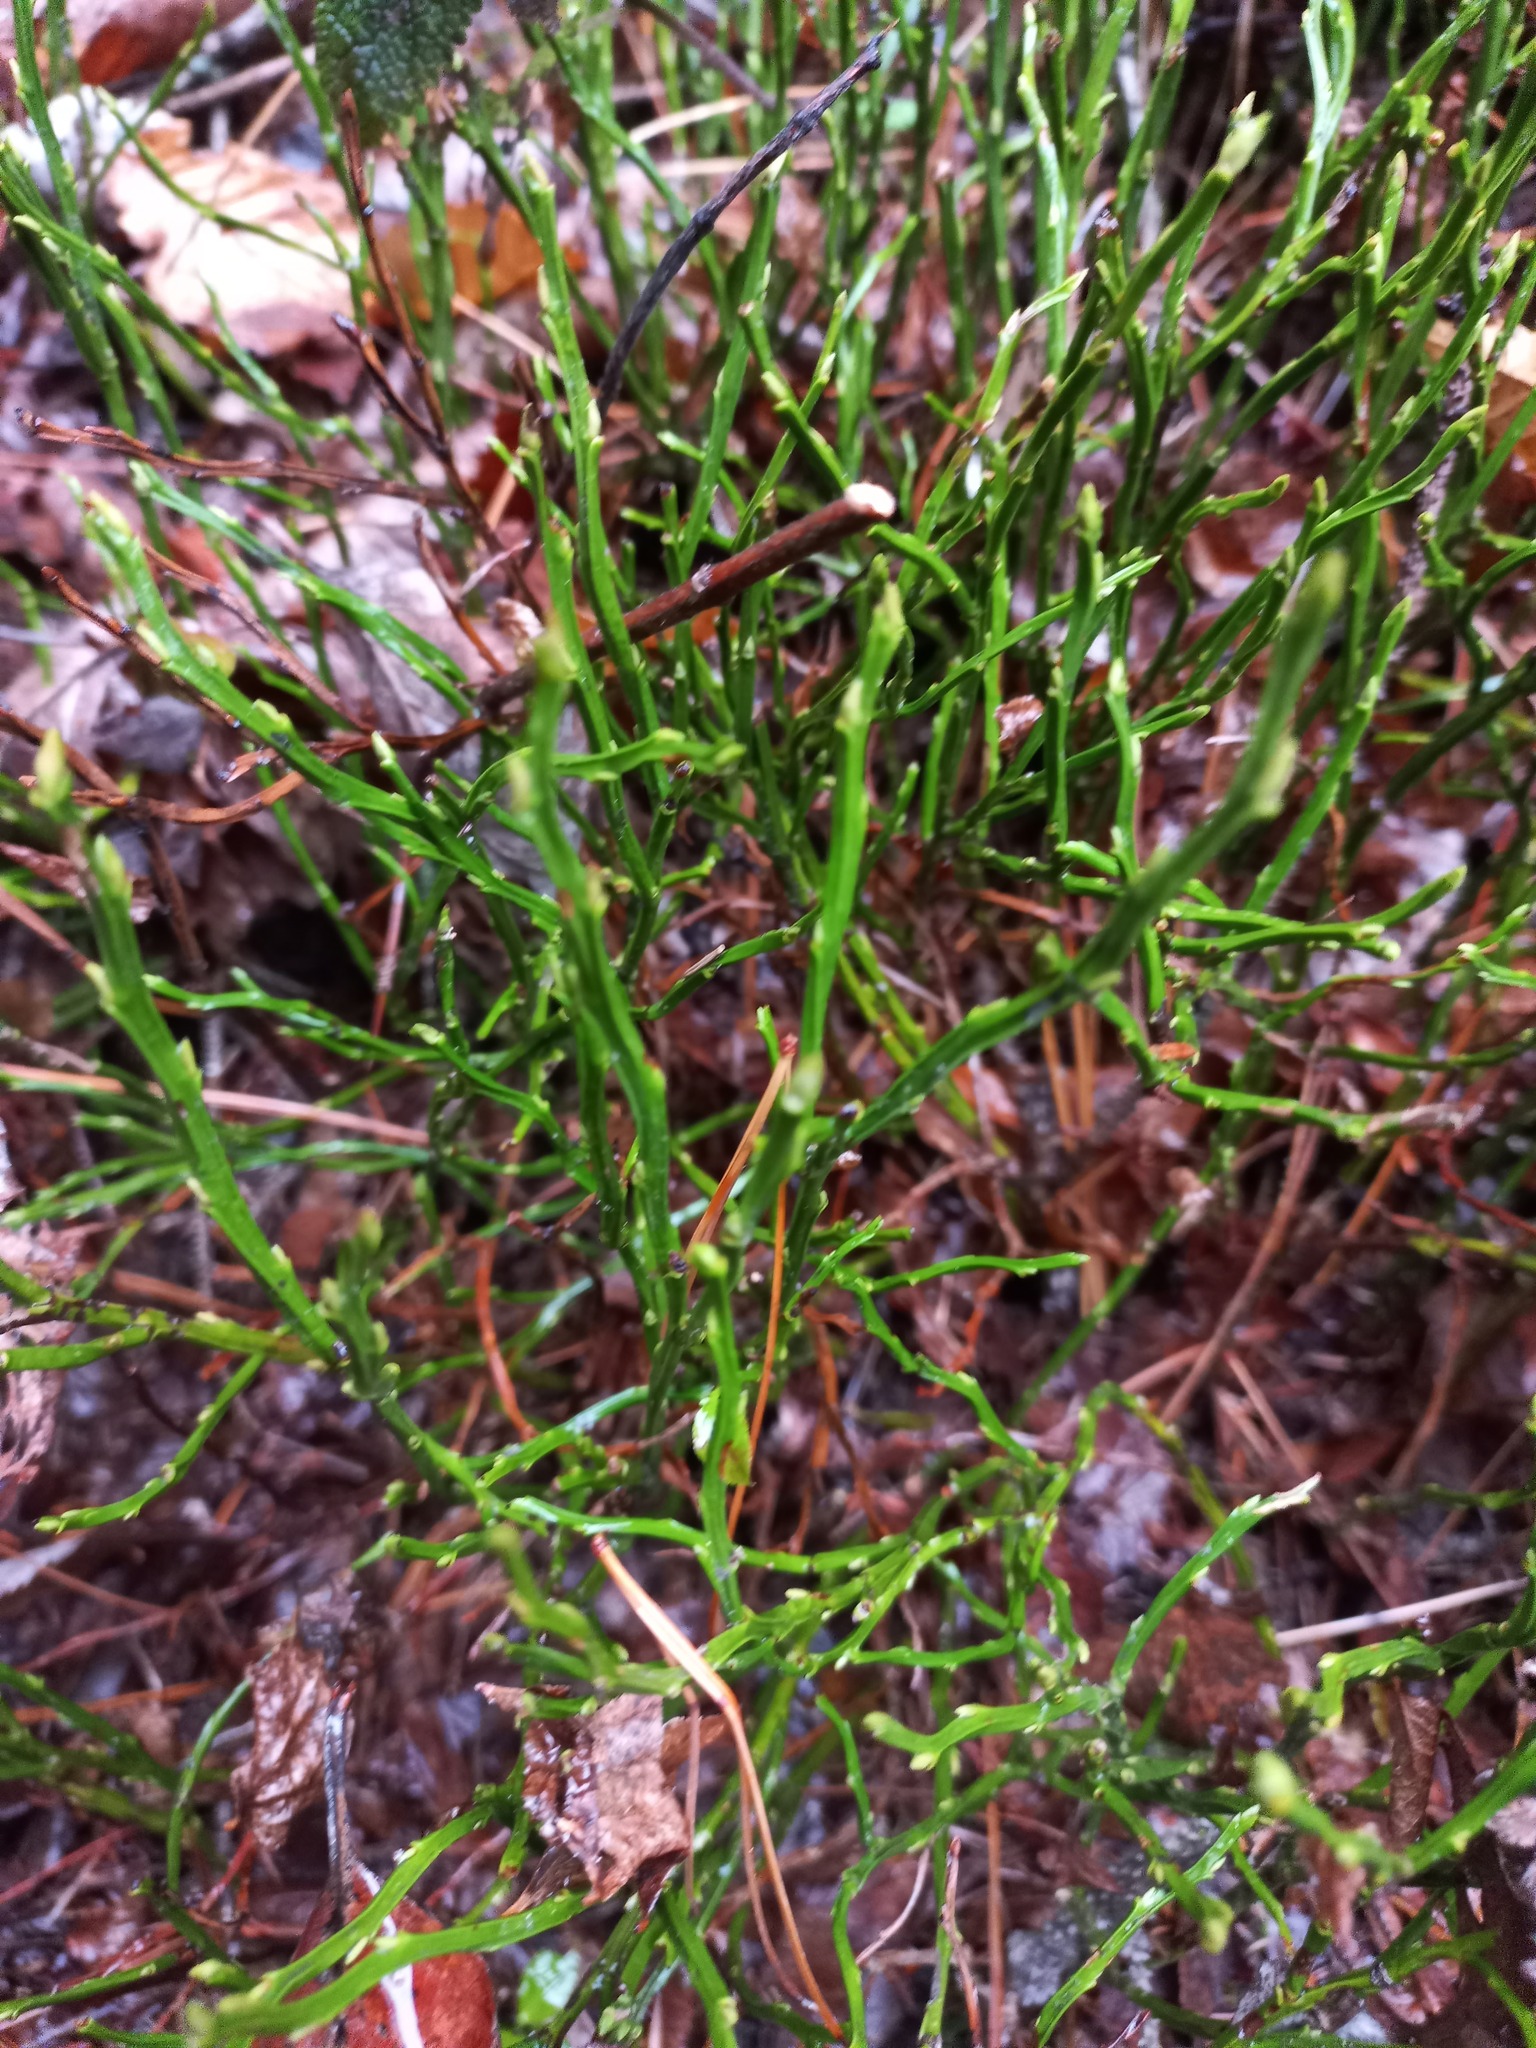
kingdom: Plantae
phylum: Tracheophyta
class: Magnoliopsida
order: Ericales
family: Ericaceae
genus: Vaccinium
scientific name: Vaccinium myrtillus
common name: Bilberry
